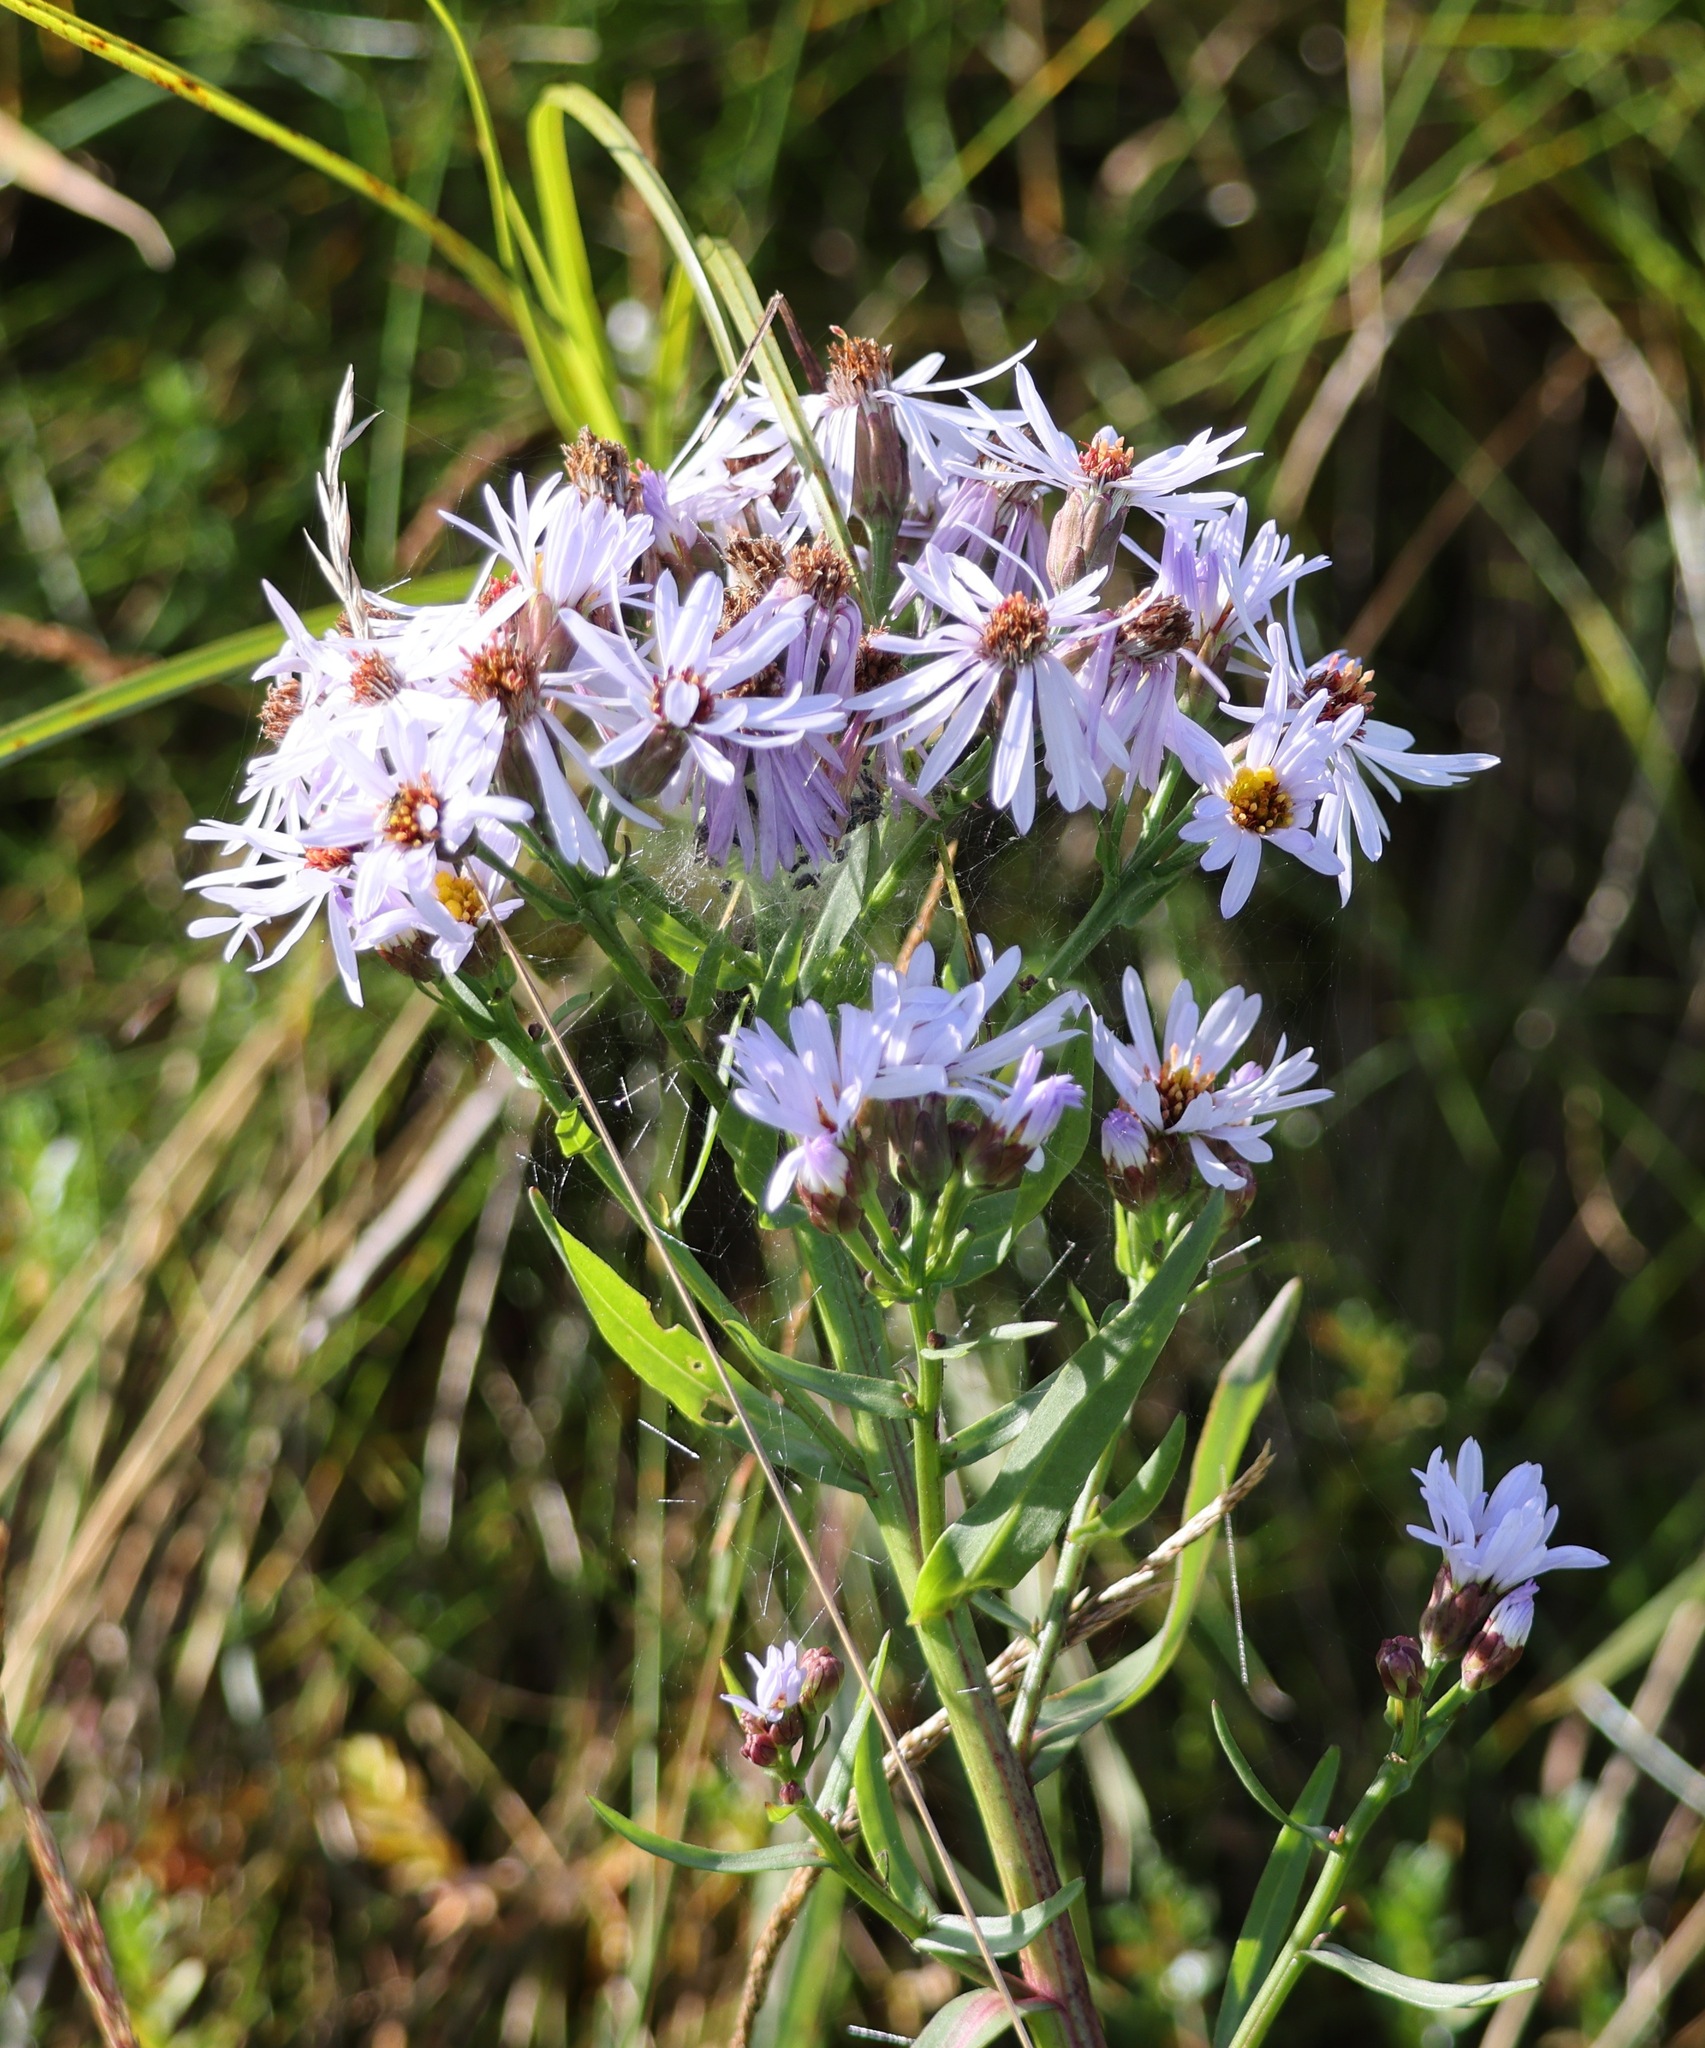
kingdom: Plantae
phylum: Tracheophyta
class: Magnoliopsida
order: Asterales
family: Asteraceae
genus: Tripolium
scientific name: Tripolium pannonicum
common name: Sea aster
